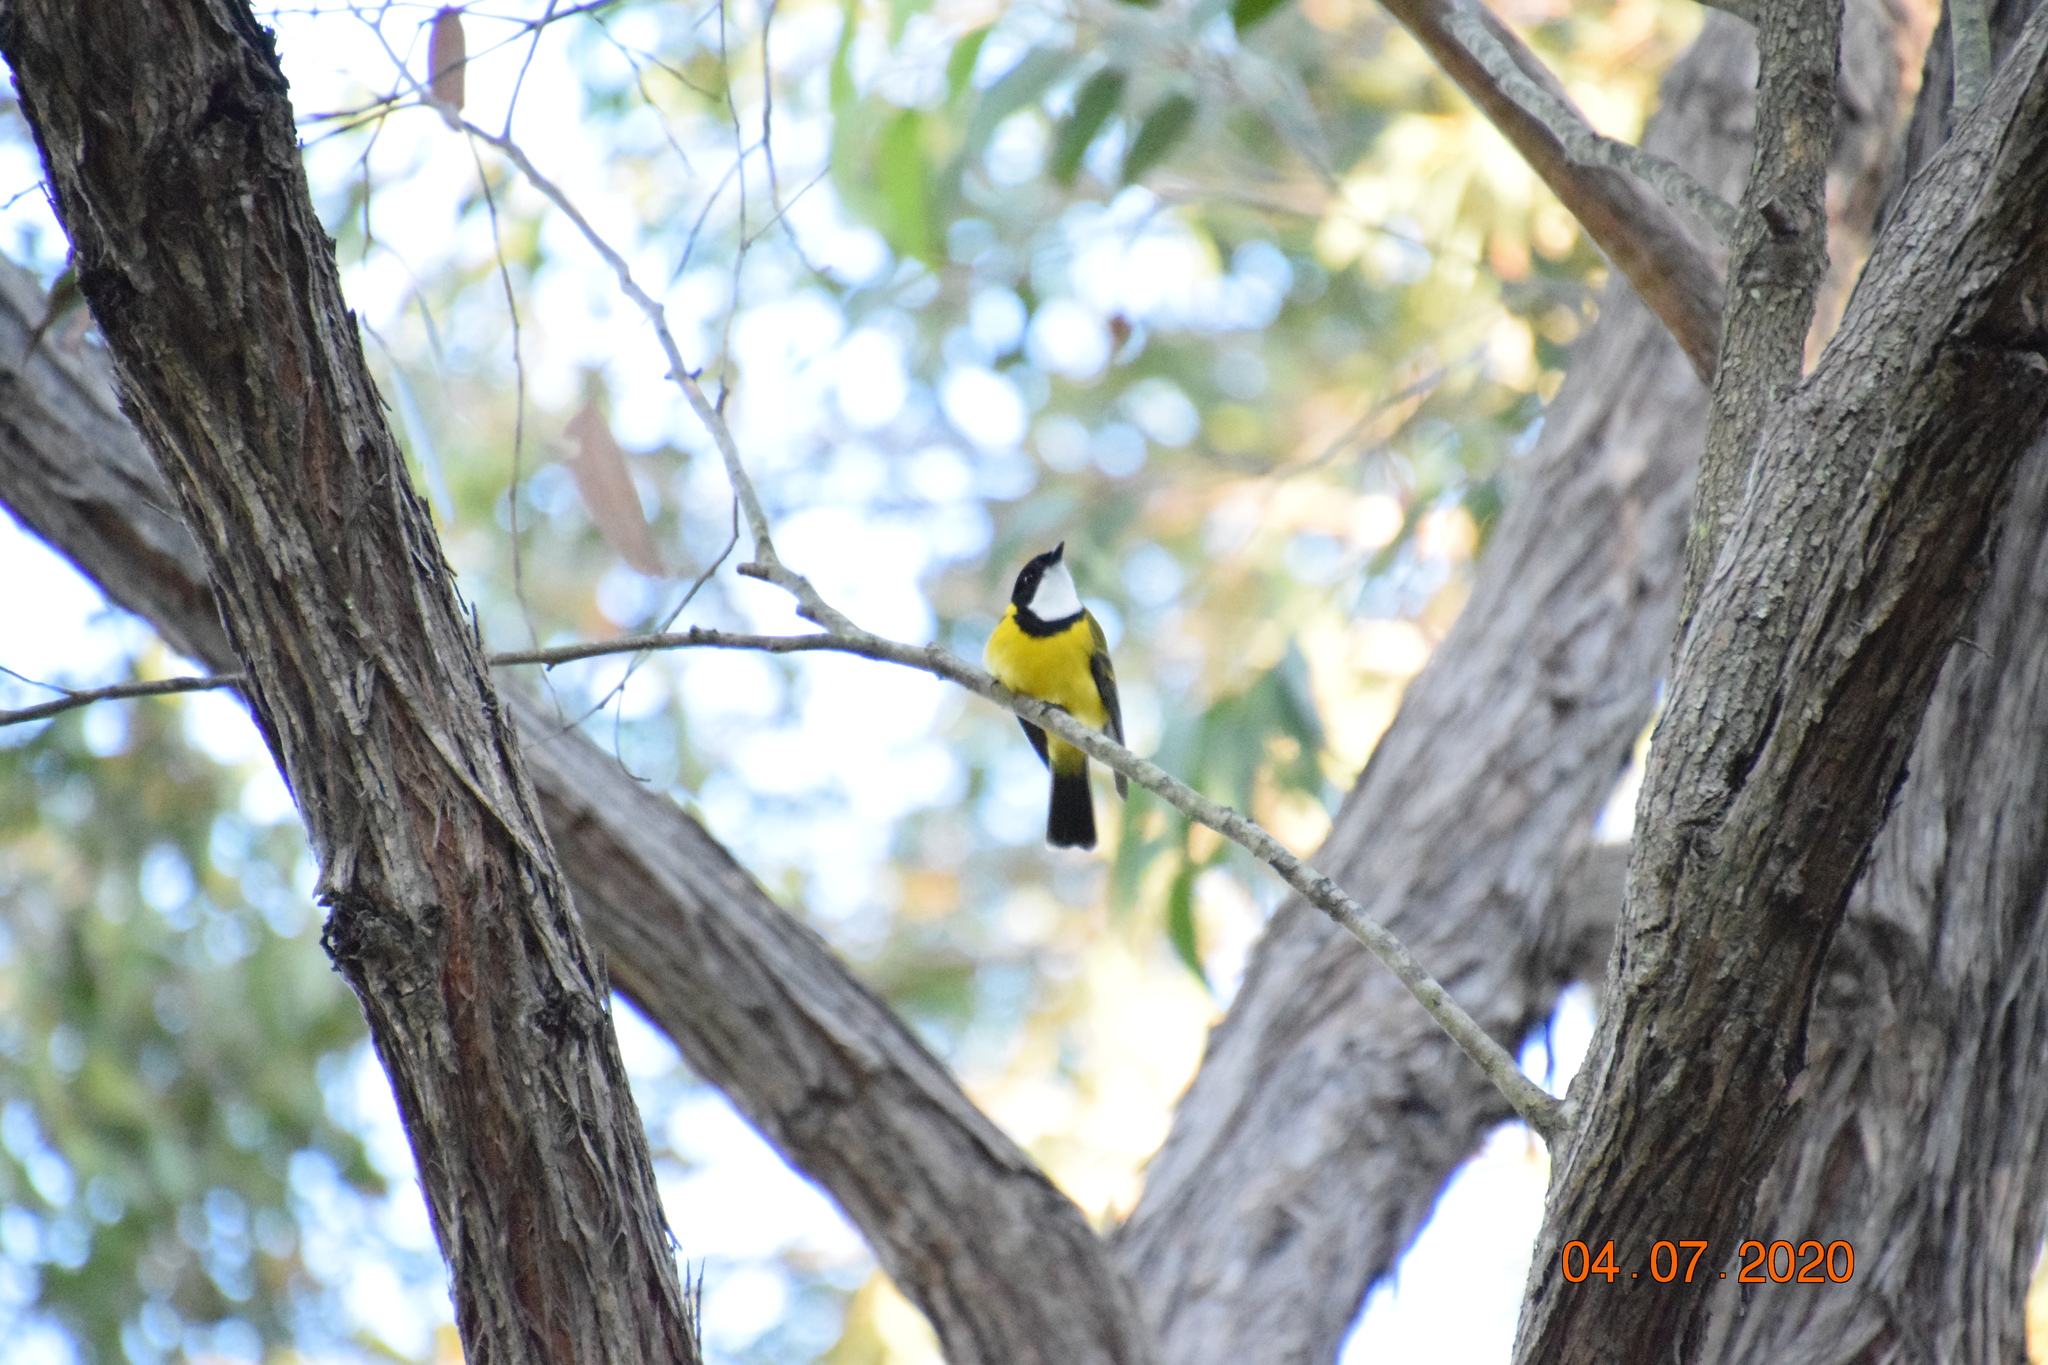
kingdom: Animalia
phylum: Chordata
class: Aves
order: Passeriformes
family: Pachycephalidae
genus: Pachycephala
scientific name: Pachycephala pectoralis
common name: Australian golden whistler
